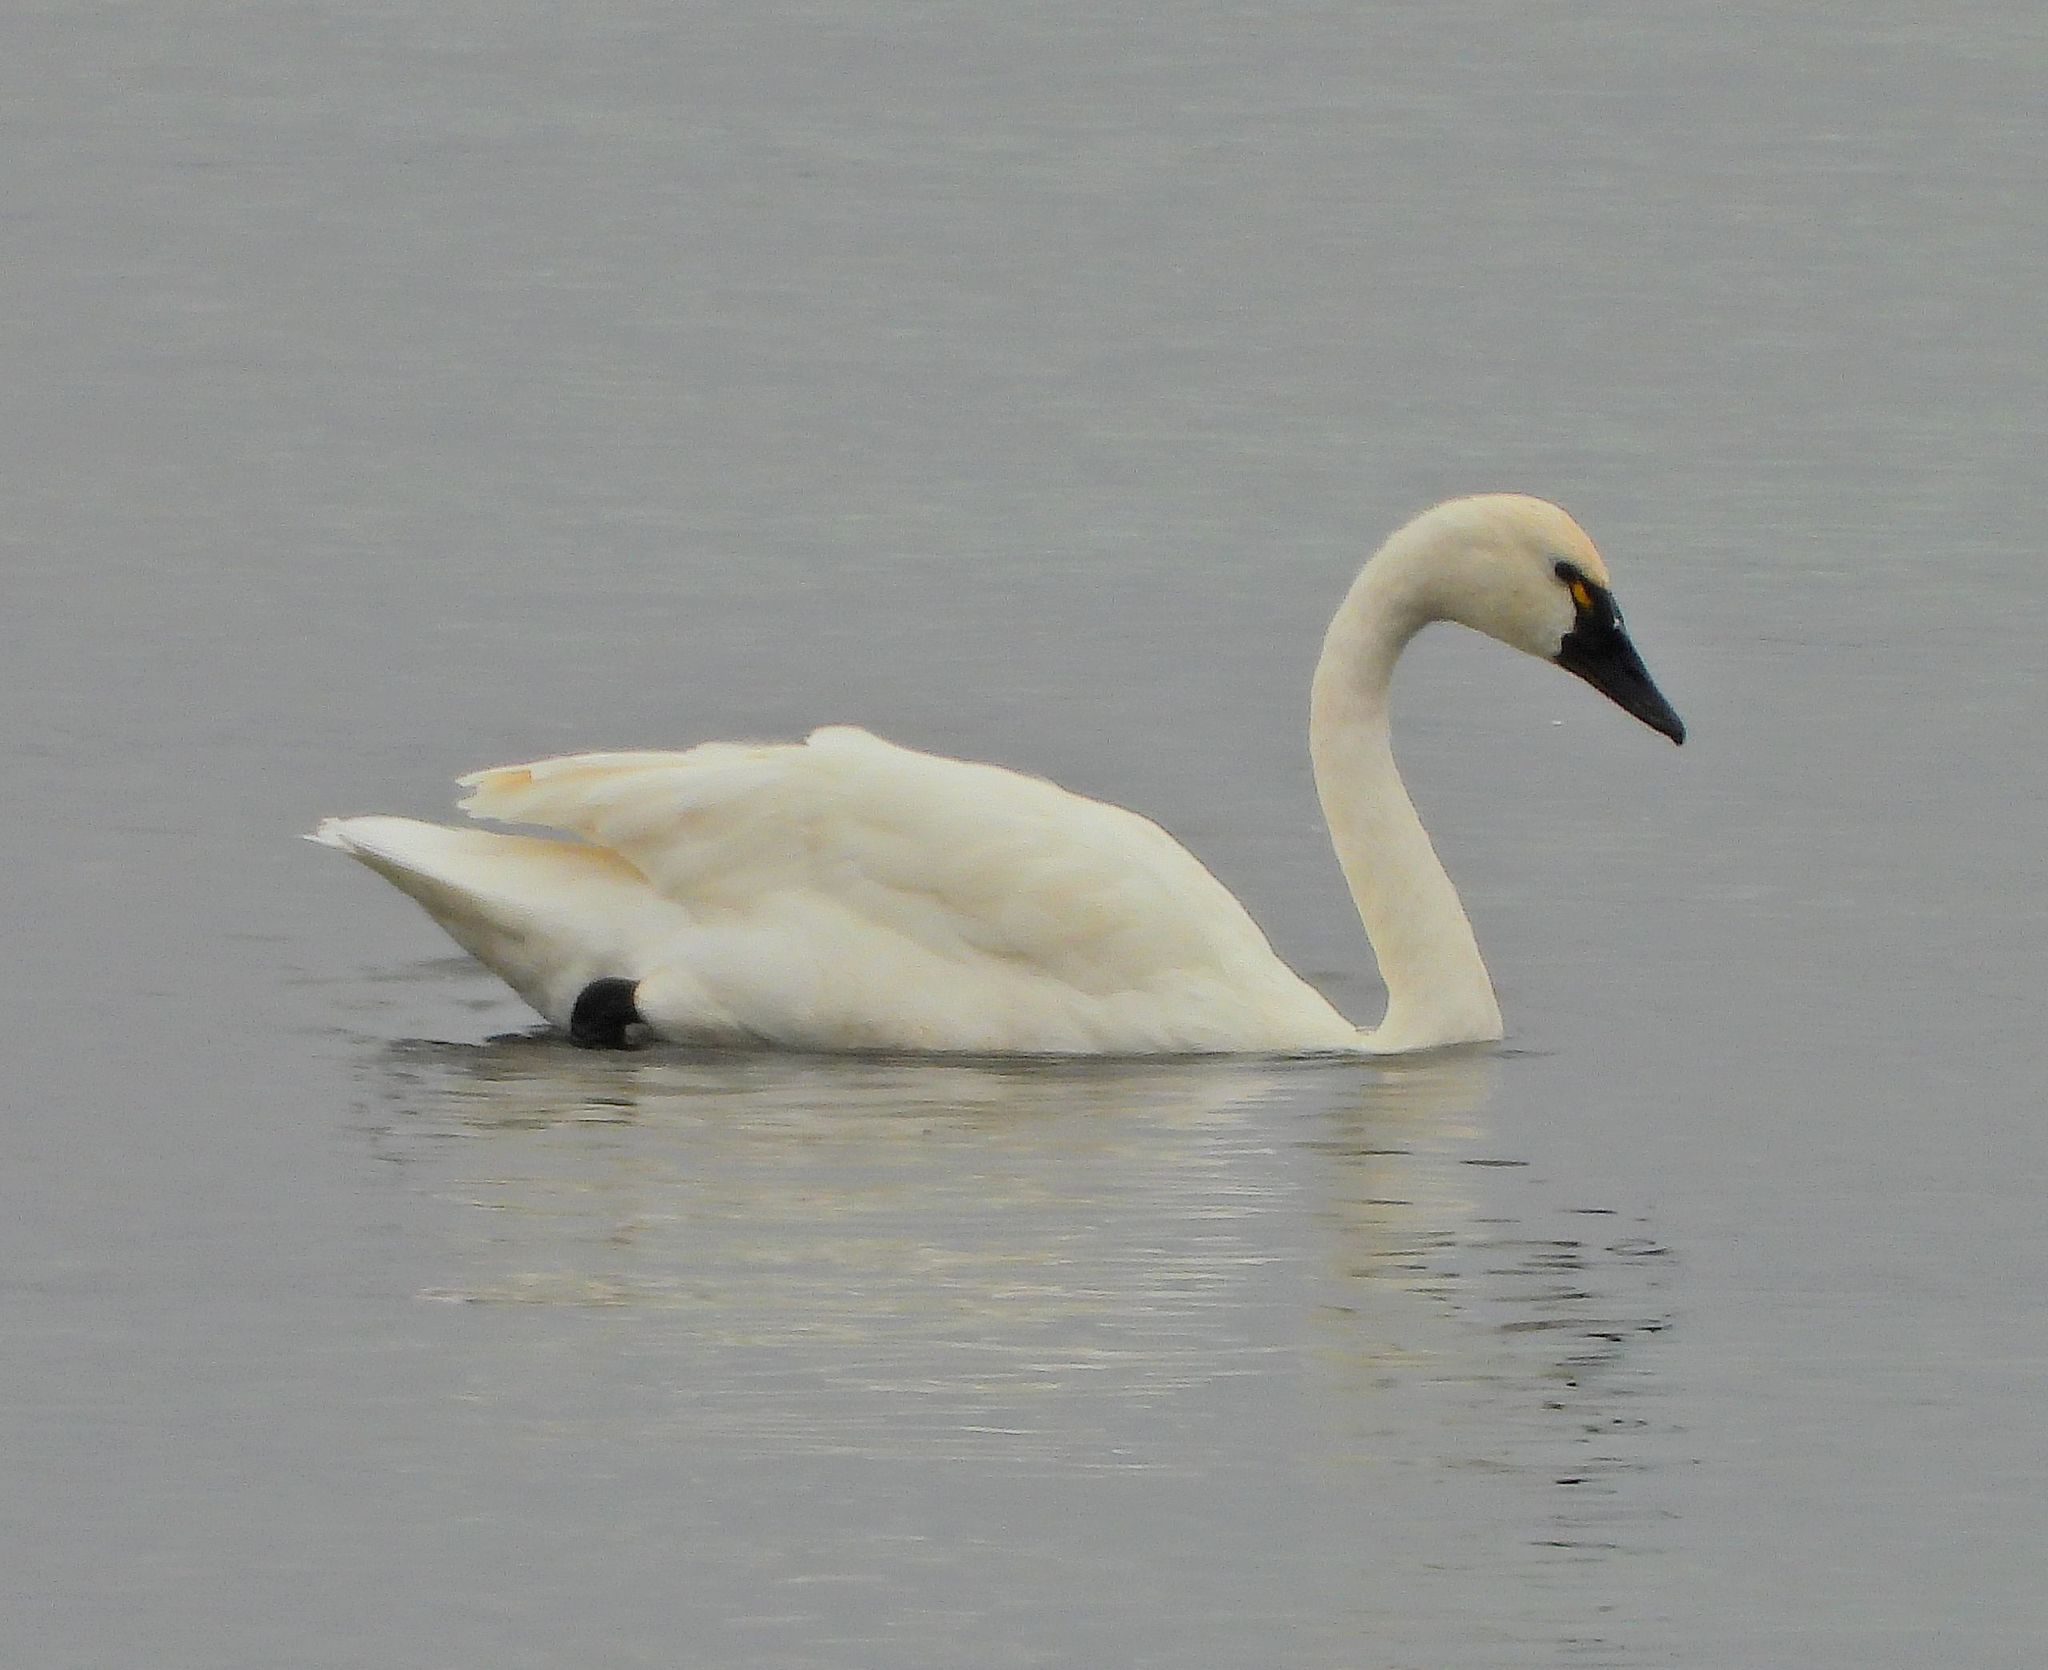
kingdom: Animalia
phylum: Chordata
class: Aves
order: Anseriformes
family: Anatidae
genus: Cygnus
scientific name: Cygnus columbianus
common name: Tundra swan
